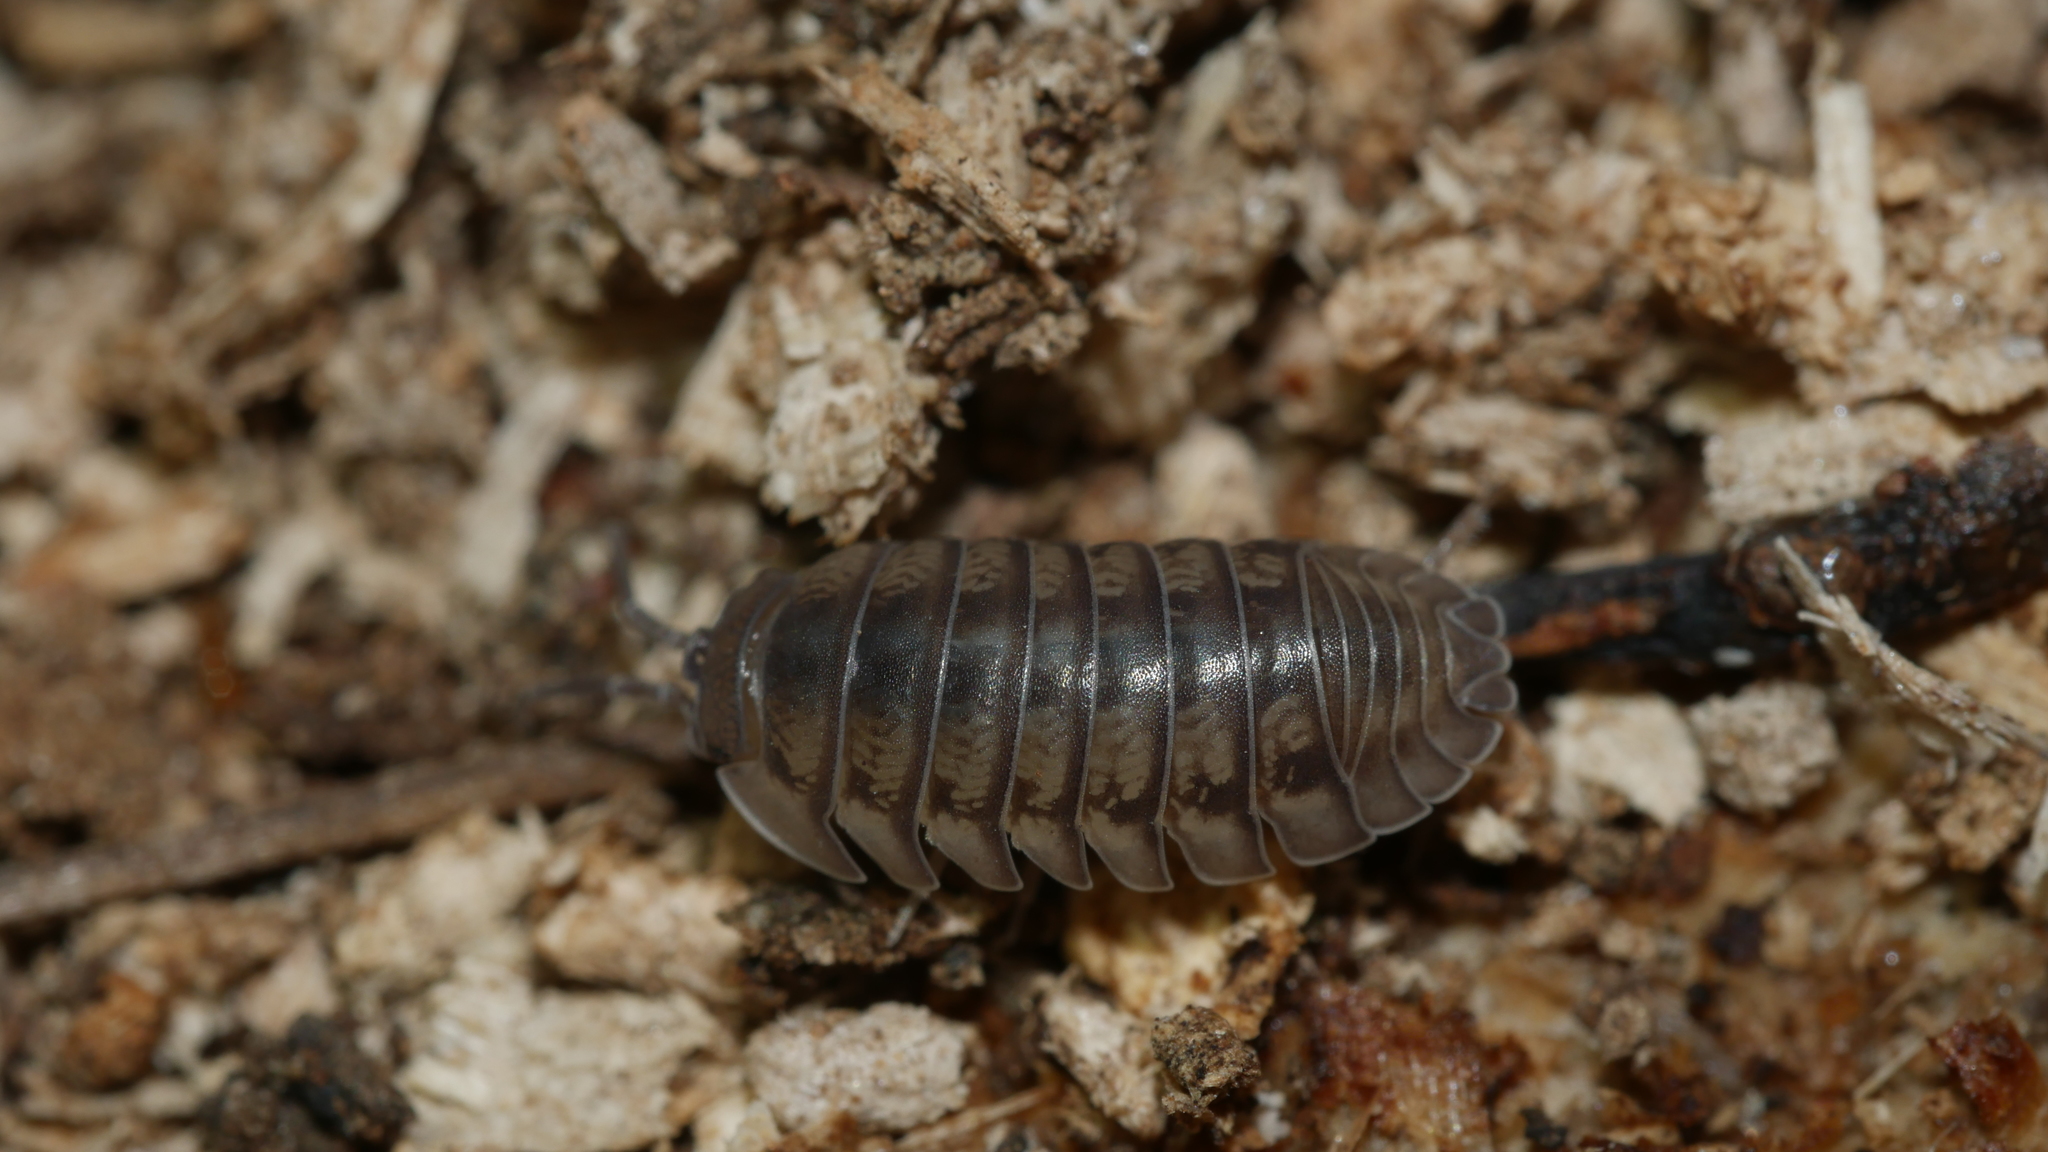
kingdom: Animalia
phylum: Arthropoda
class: Malacostraca
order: Isopoda
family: Armadillidiidae
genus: Armadillidium
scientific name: Armadillidium nasatum
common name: Isopod
